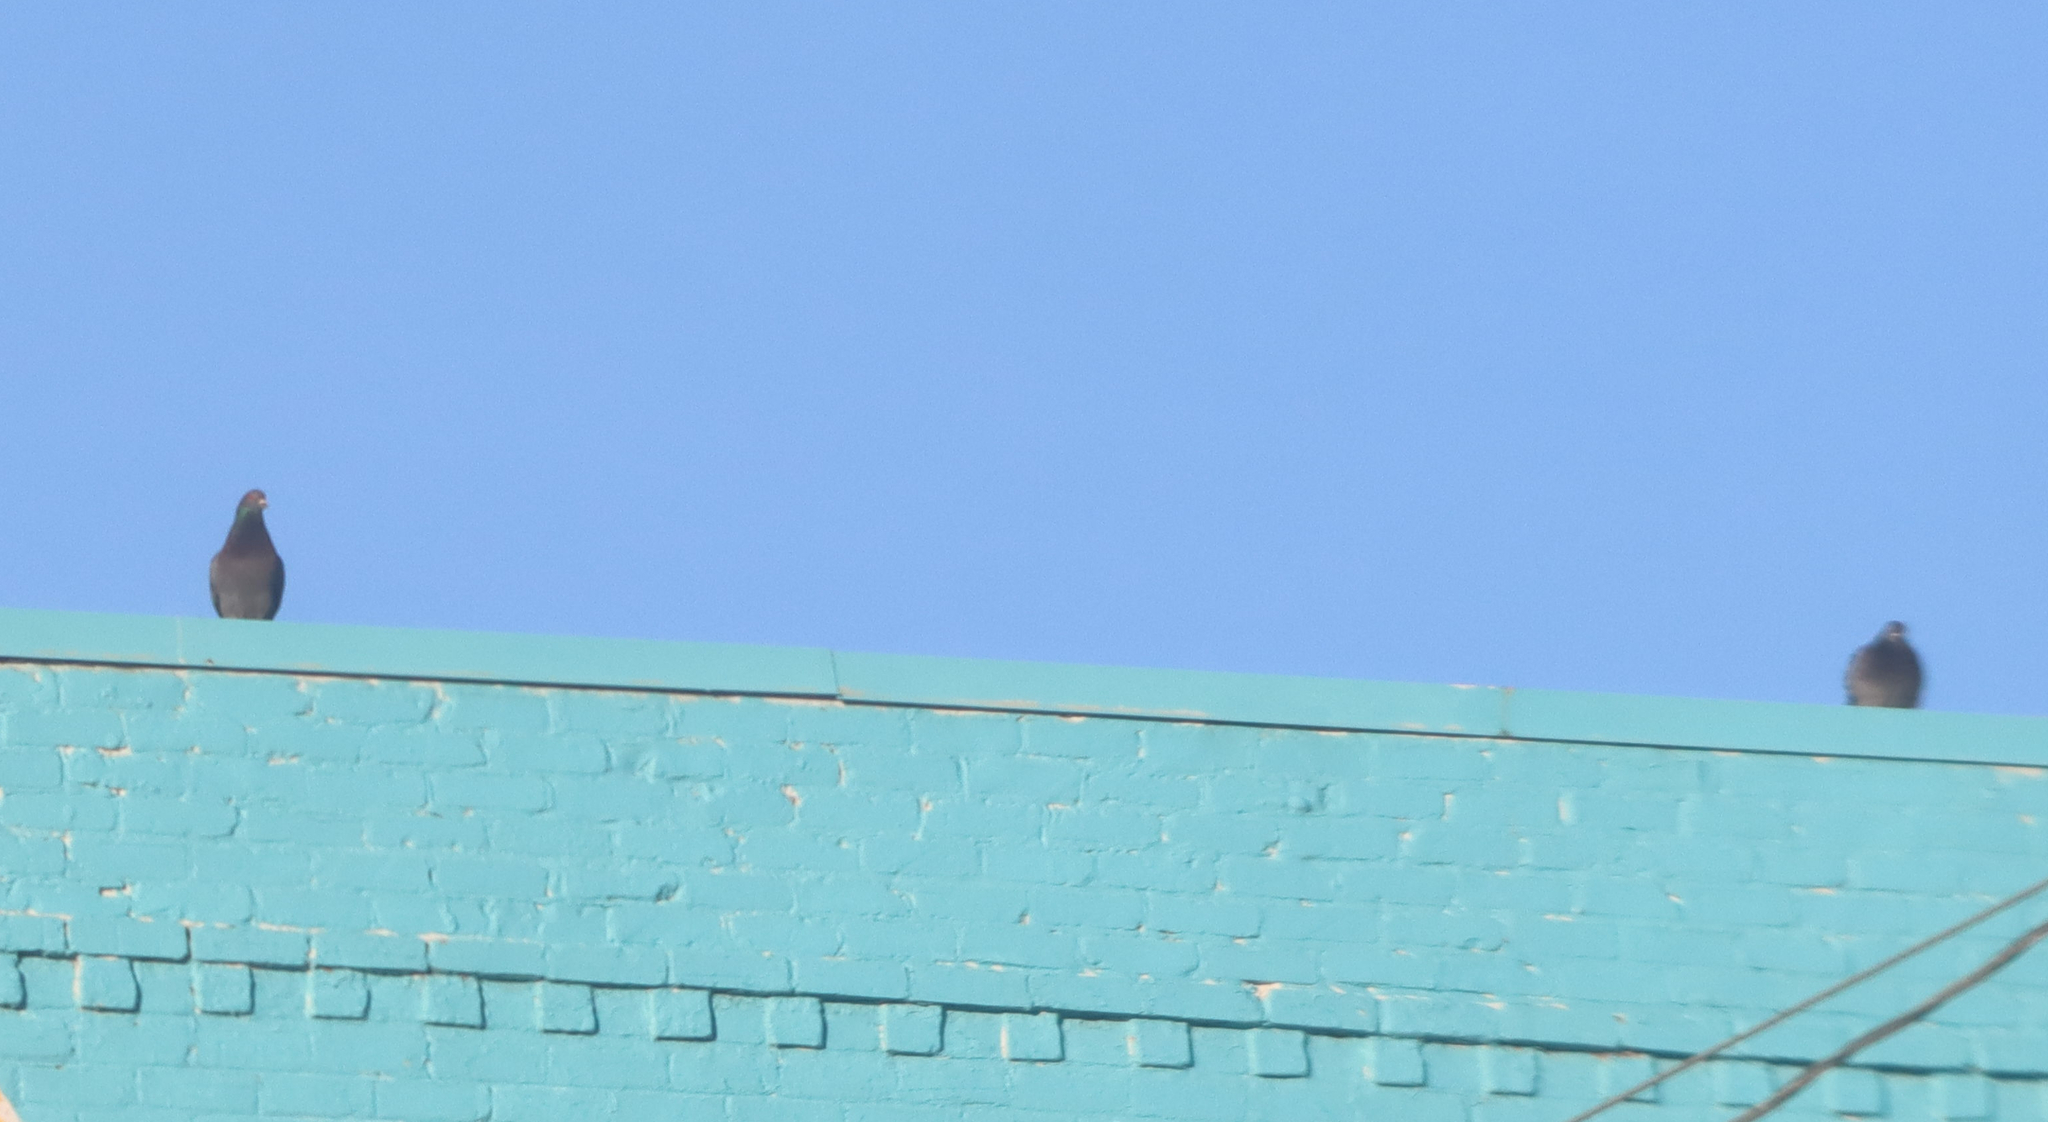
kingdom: Animalia
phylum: Chordata
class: Aves
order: Columbiformes
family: Columbidae
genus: Columba
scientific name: Columba livia
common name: Rock pigeon
